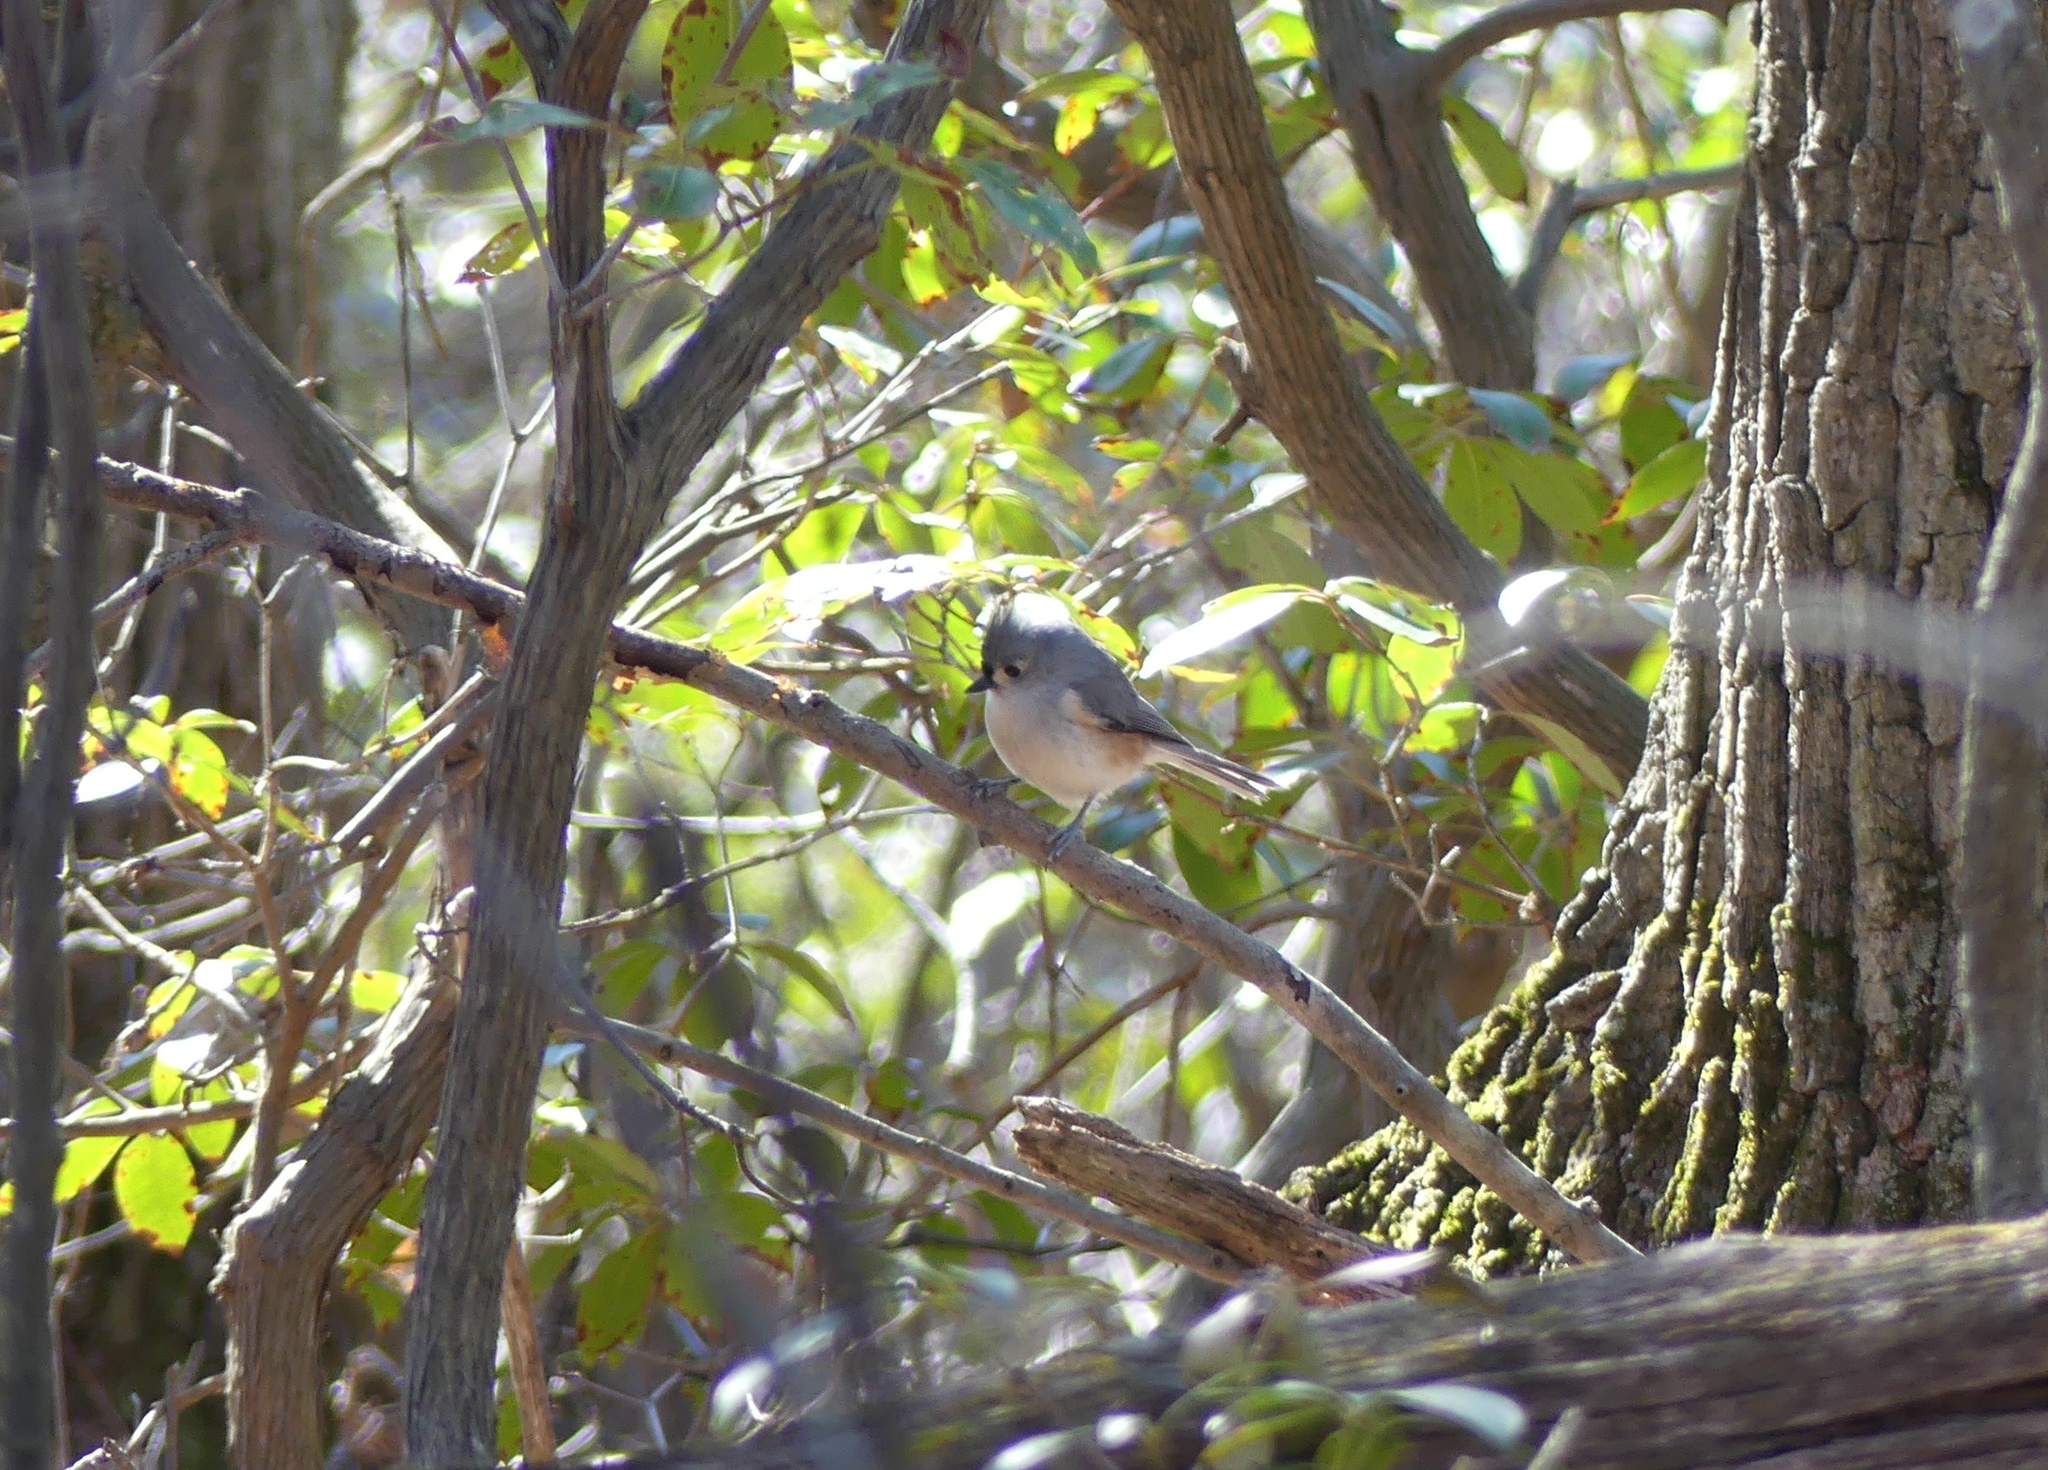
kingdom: Animalia
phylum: Chordata
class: Aves
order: Passeriformes
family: Paridae
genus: Baeolophus
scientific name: Baeolophus bicolor
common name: Tufted titmouse
